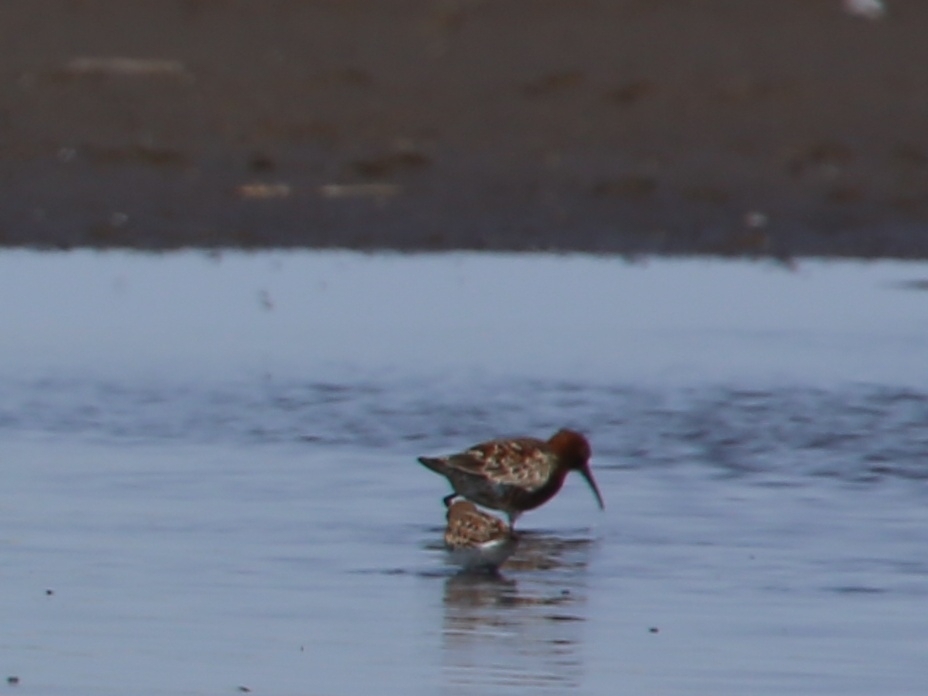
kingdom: Animalia
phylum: Chordata
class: Aves
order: Charadriiformes
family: Scolopacidae
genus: Calidris
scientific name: Calidris ferruginea
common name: Curlew sandpiper
